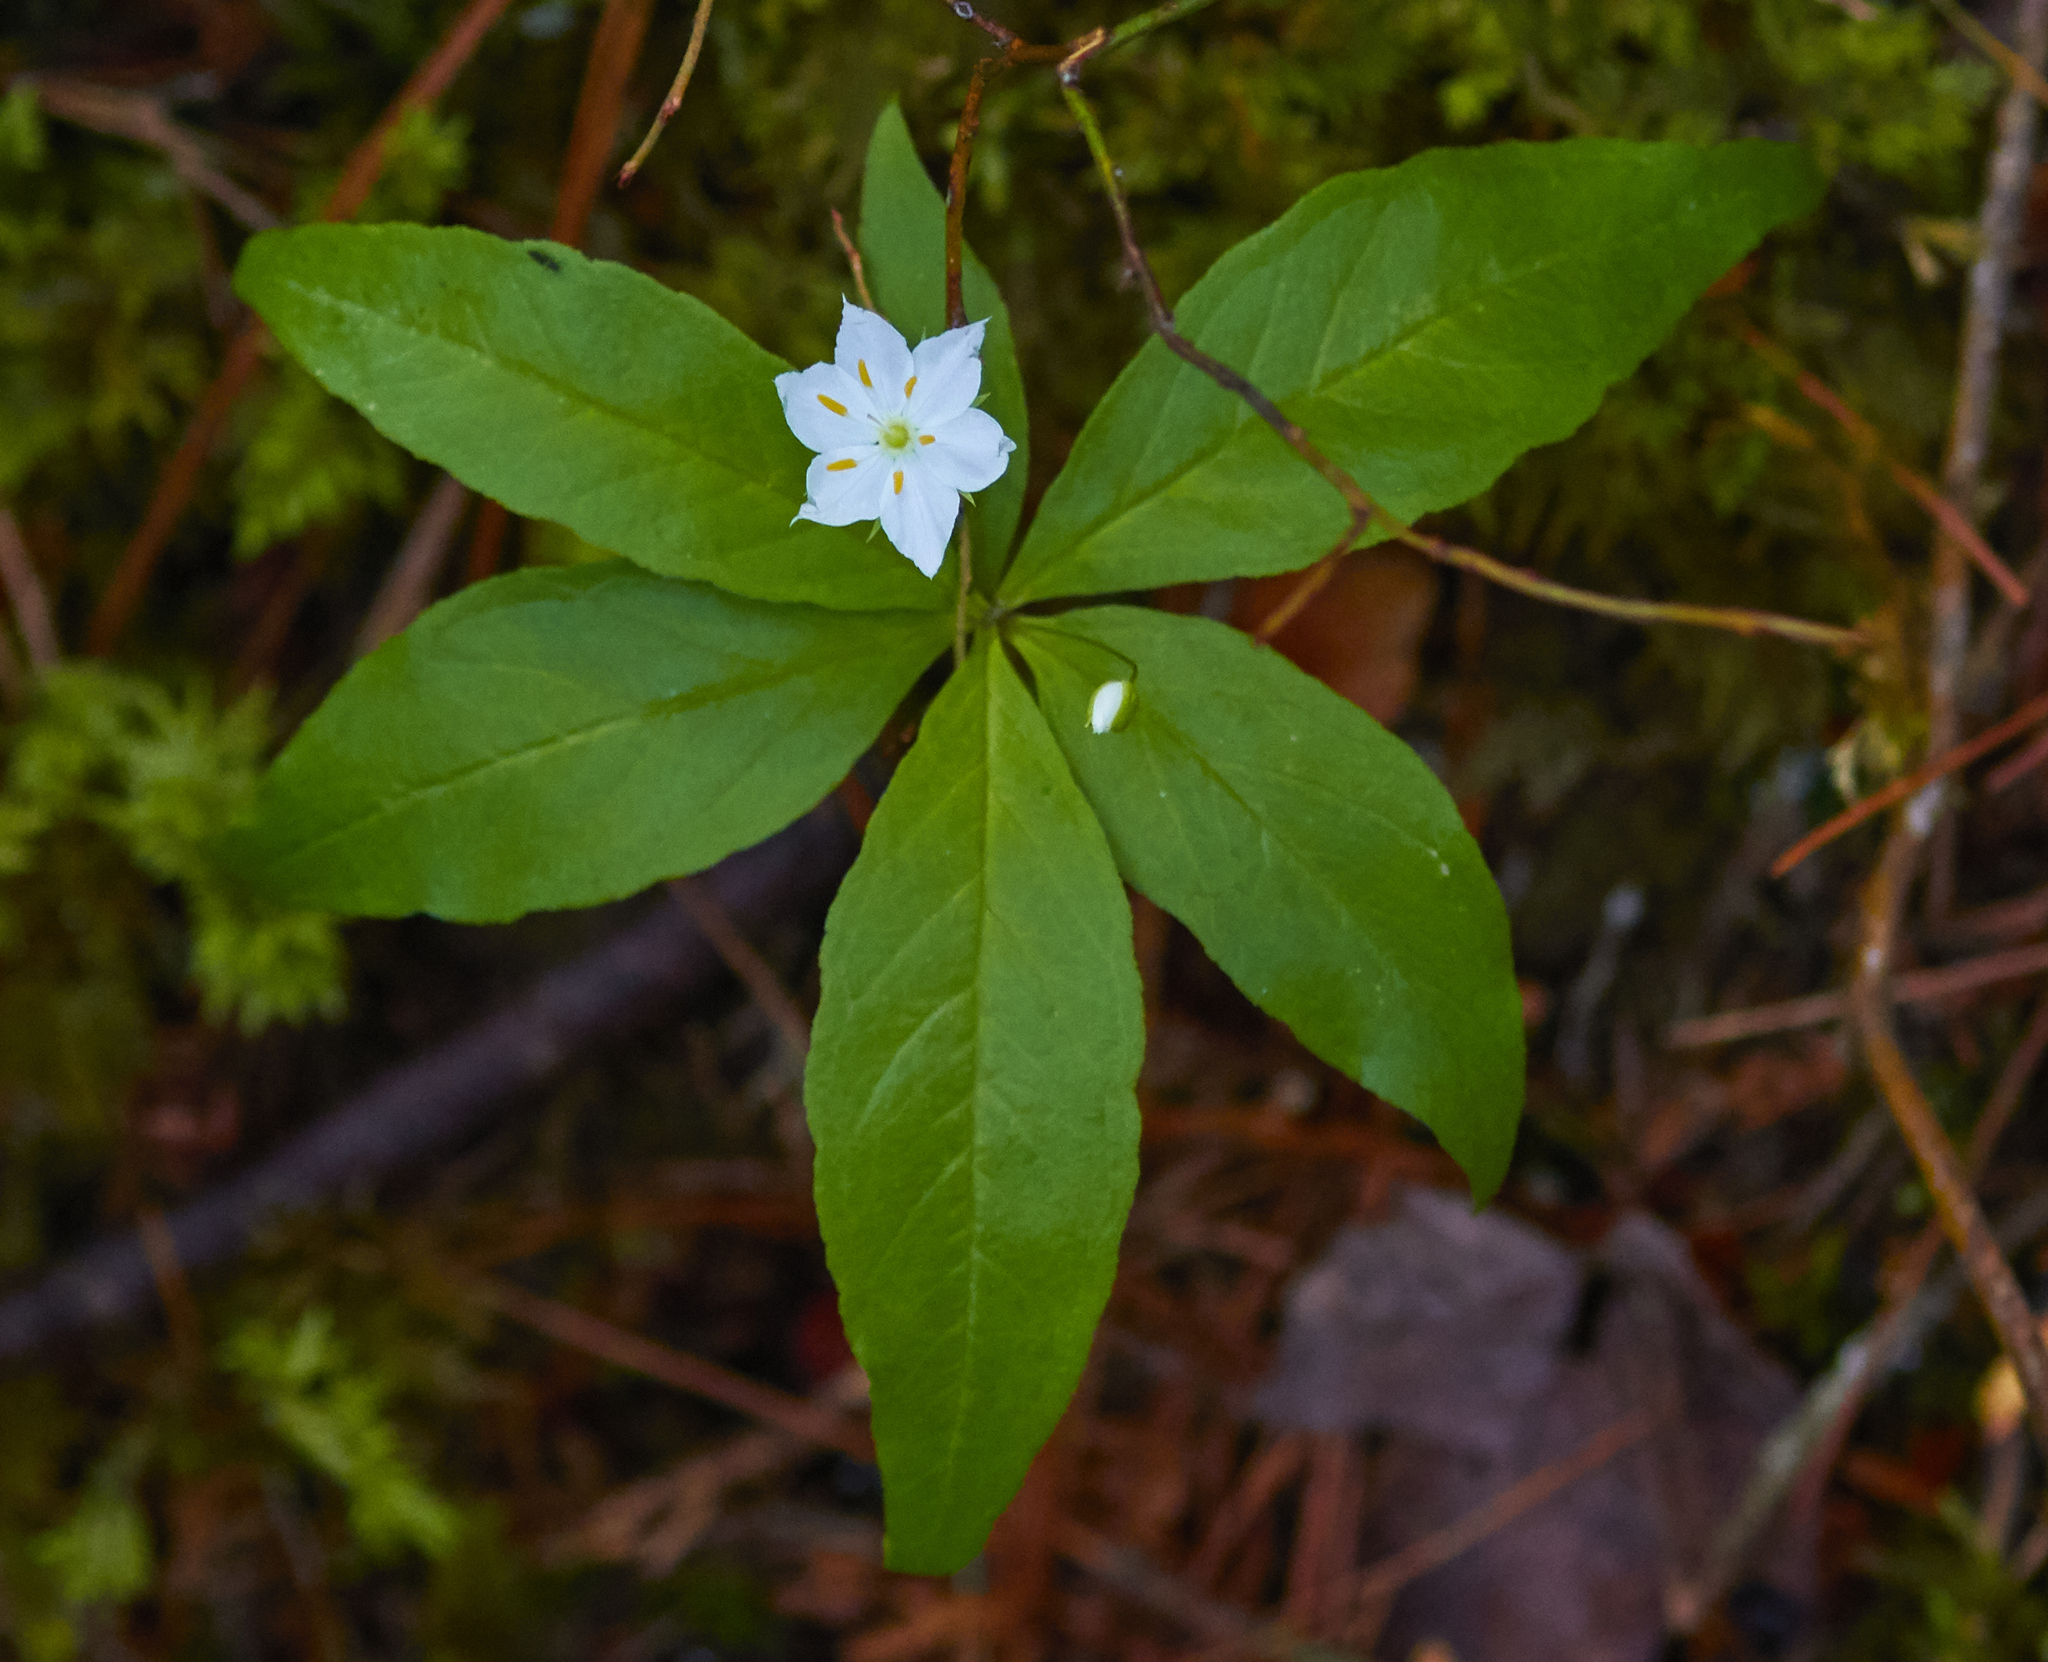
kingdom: Plantae
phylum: Tracheophyta
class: Magnoliopsida
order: Ericales
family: Primulaceae
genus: Lysimachia
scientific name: Lysimachia borealis
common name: American starflower
